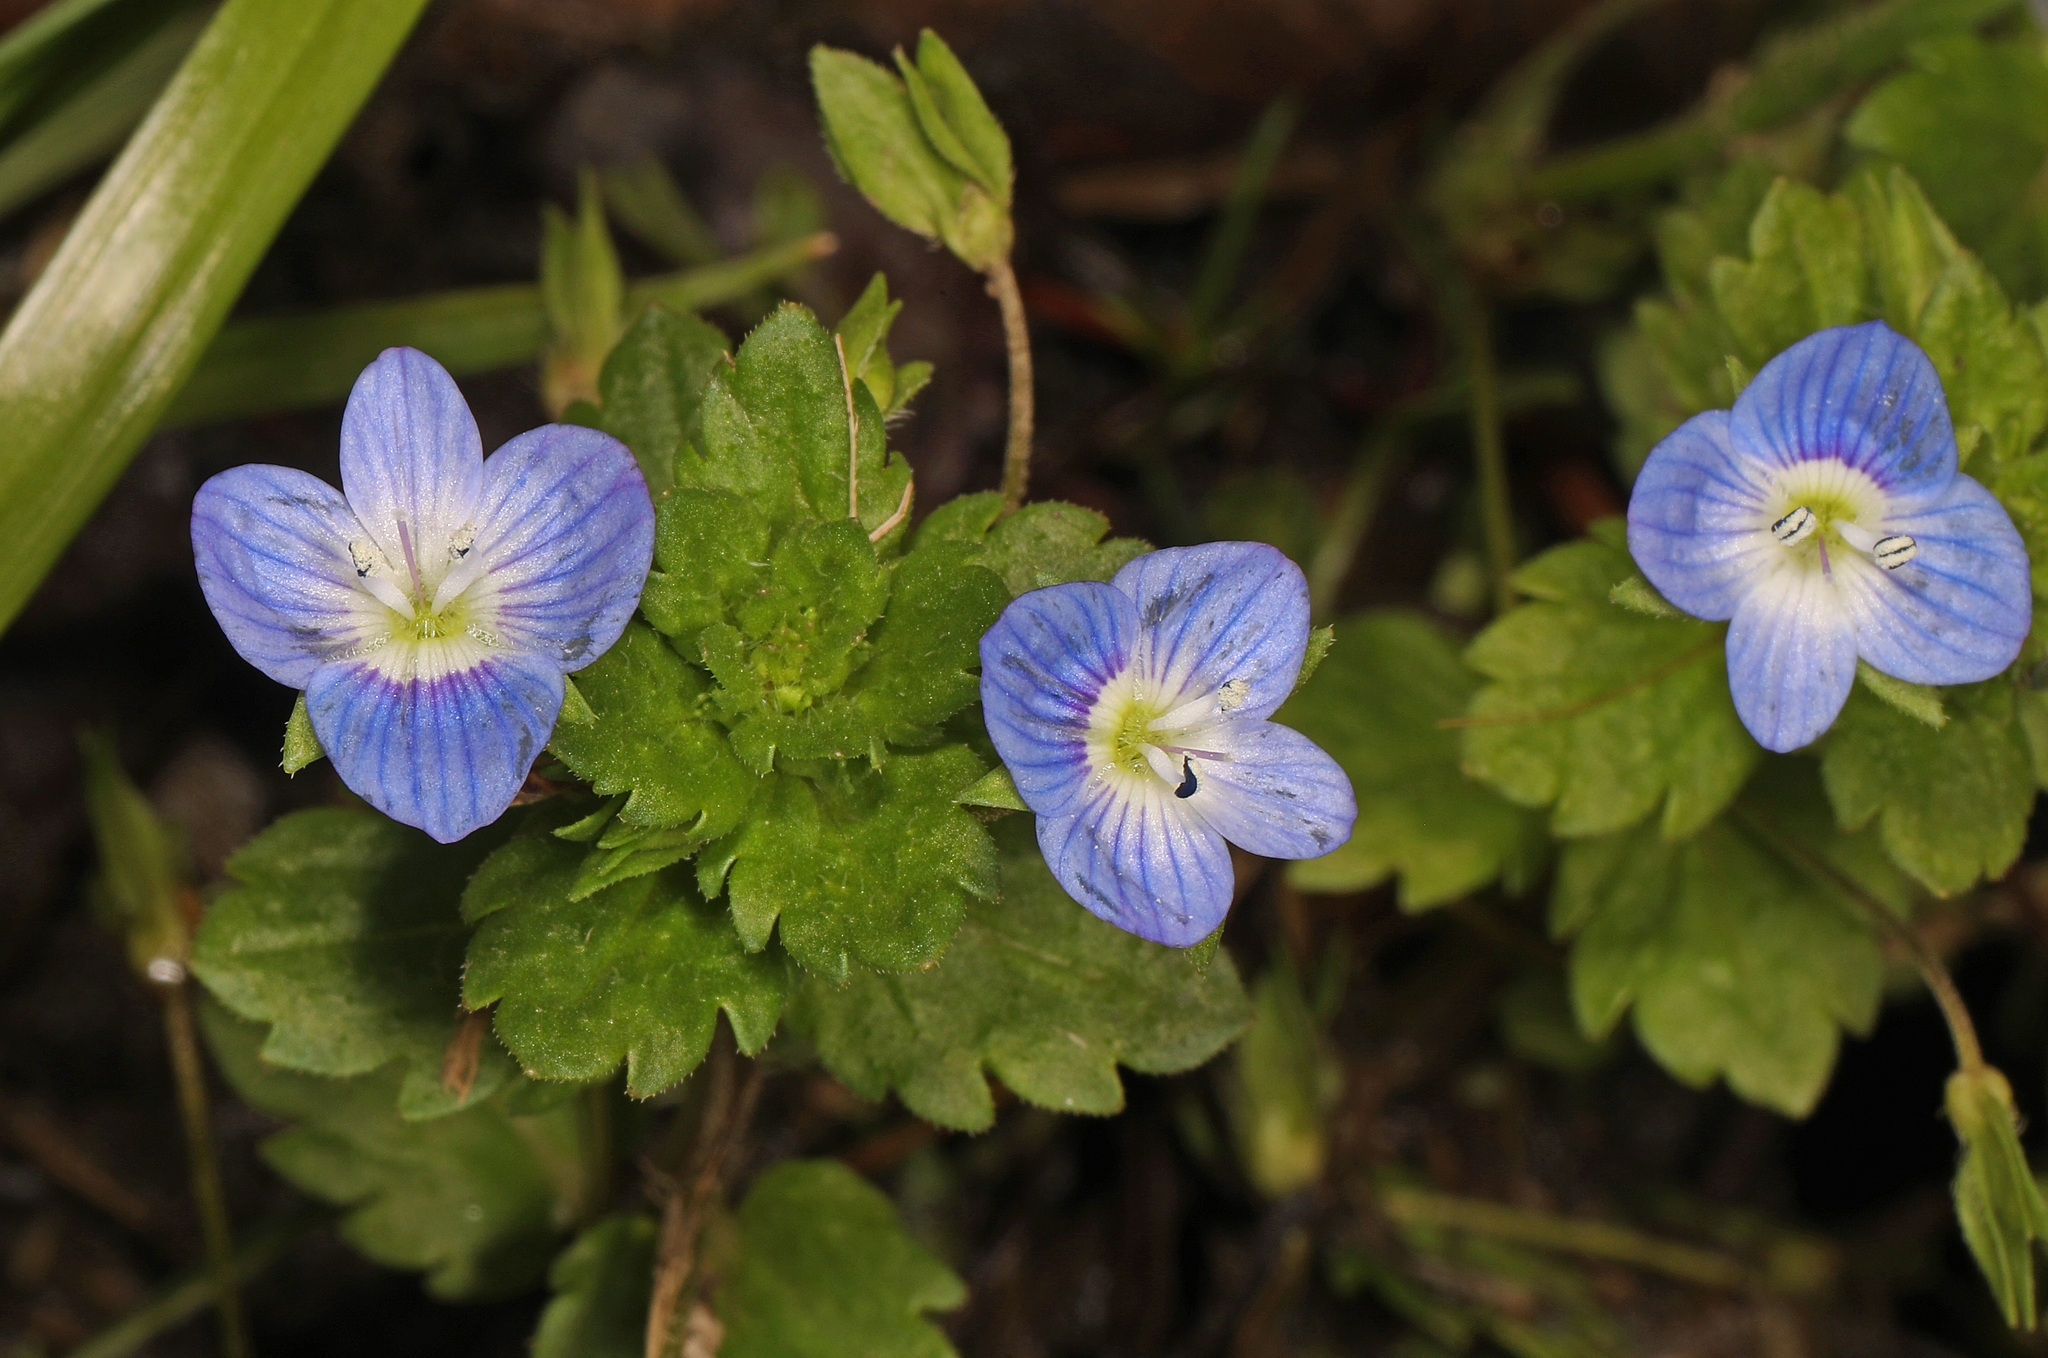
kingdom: Plantae
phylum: Tracheophyta
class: Magnoliopsida
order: Lamiales
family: Plantaginaceae
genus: Veronica
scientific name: Veronica persica
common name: Common field-speedwell
